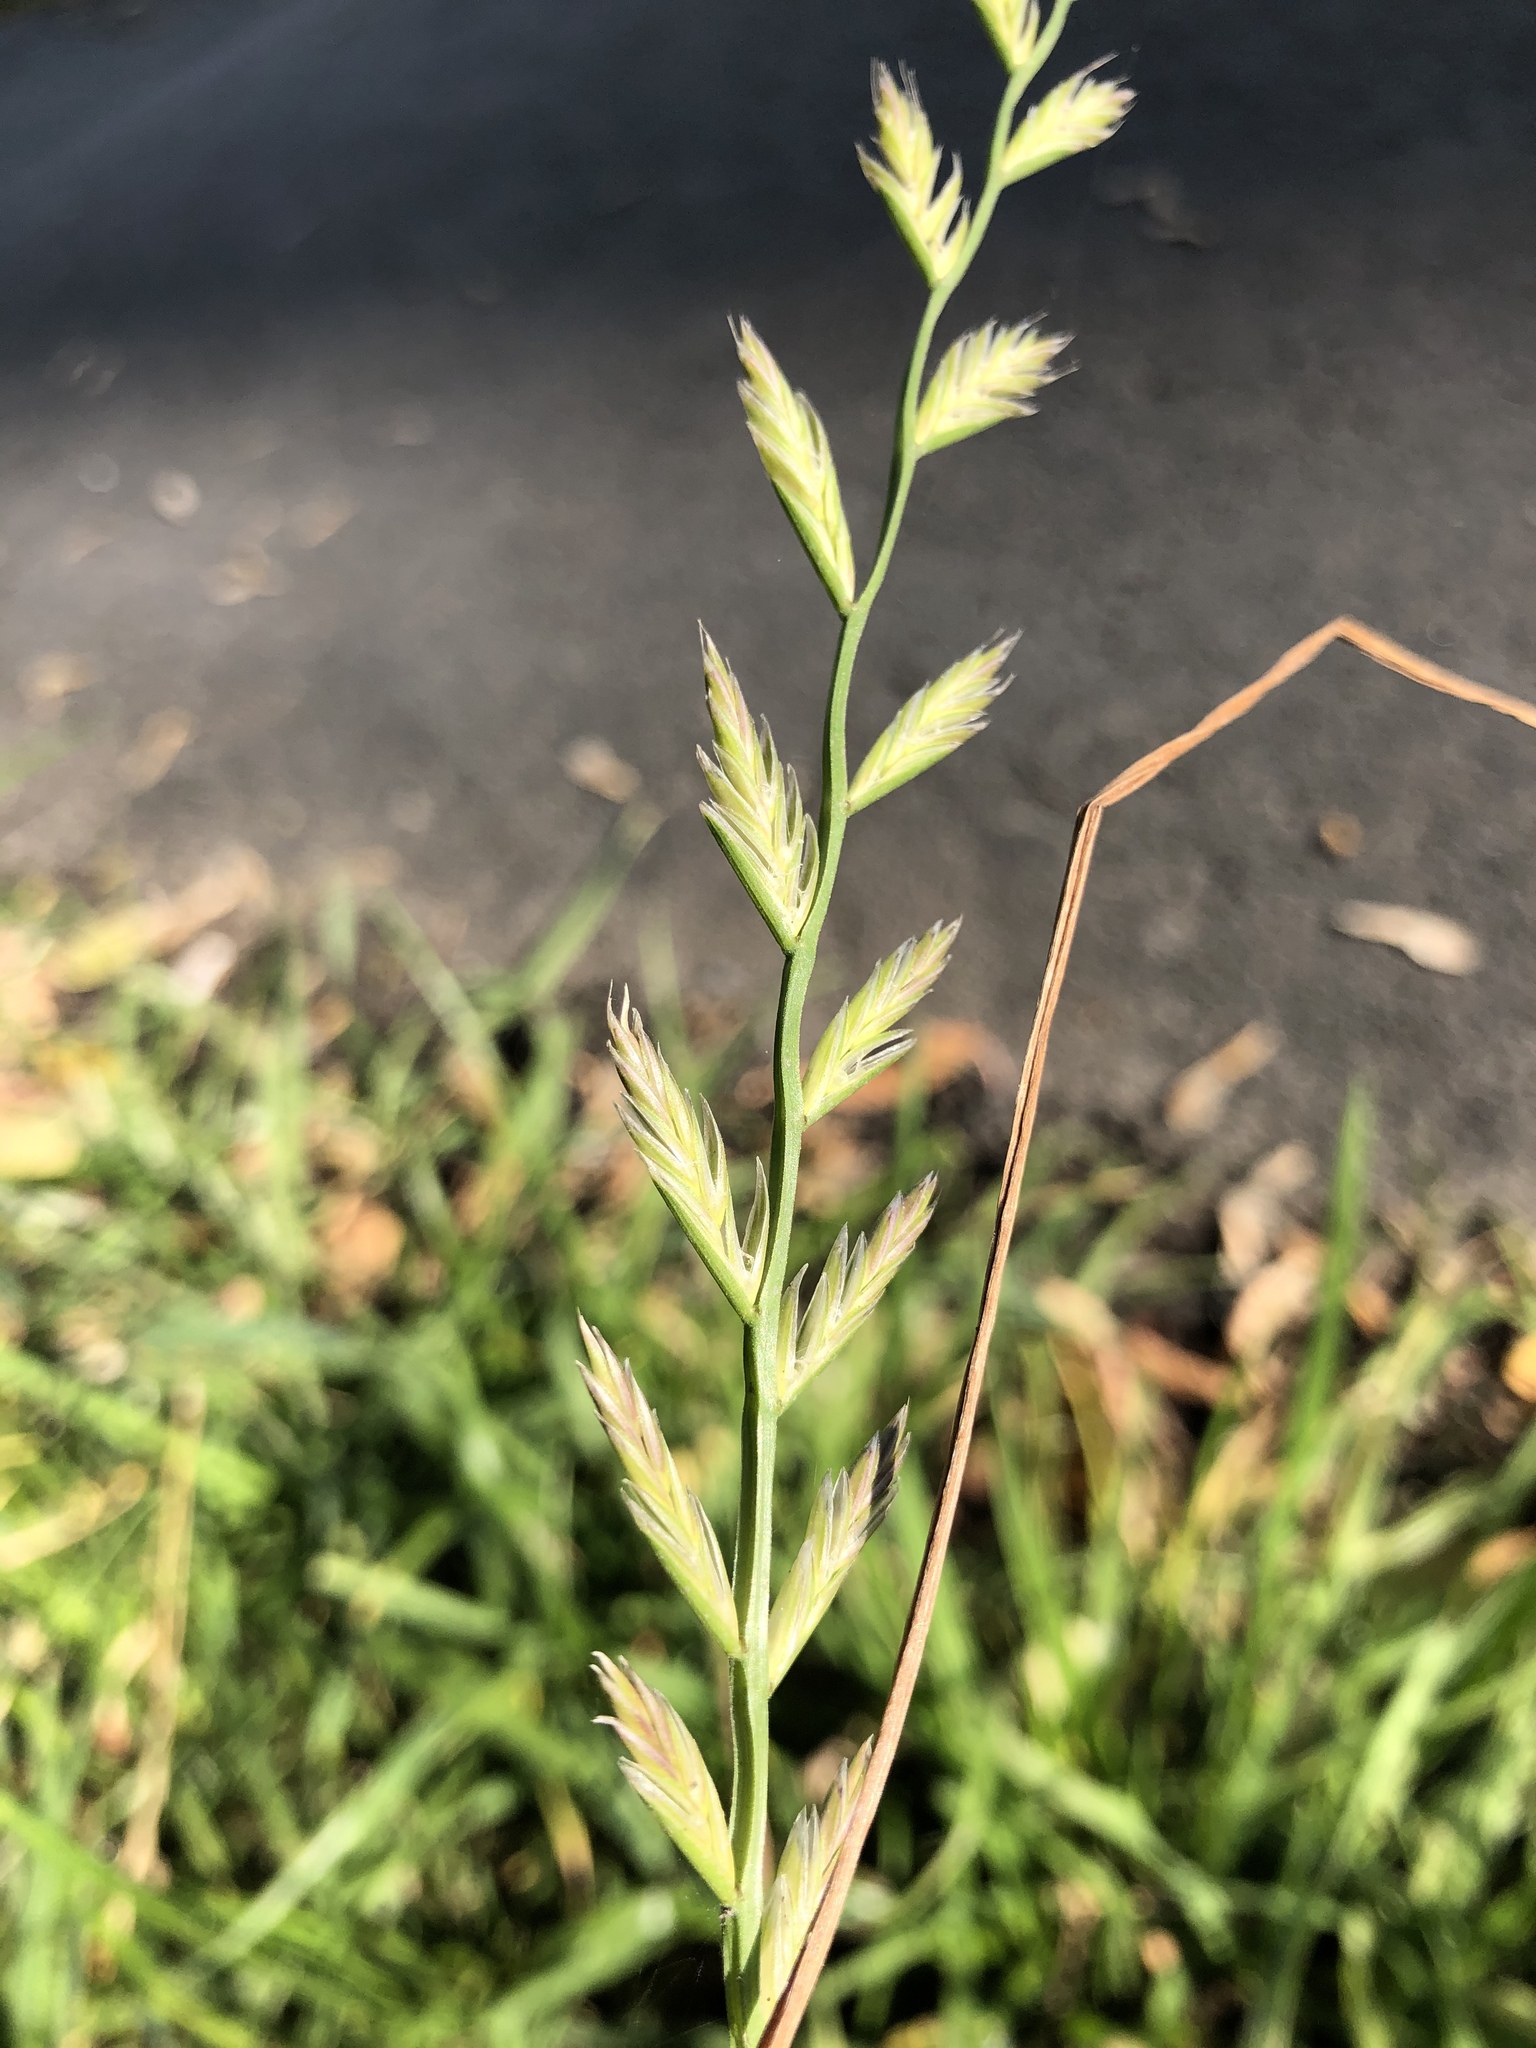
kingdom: Plantae
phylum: Tracheophyta
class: Liliopsida
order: Poales
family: Poaceae
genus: Lolium
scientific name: Lolium perenne
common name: Perennial ryegrass
